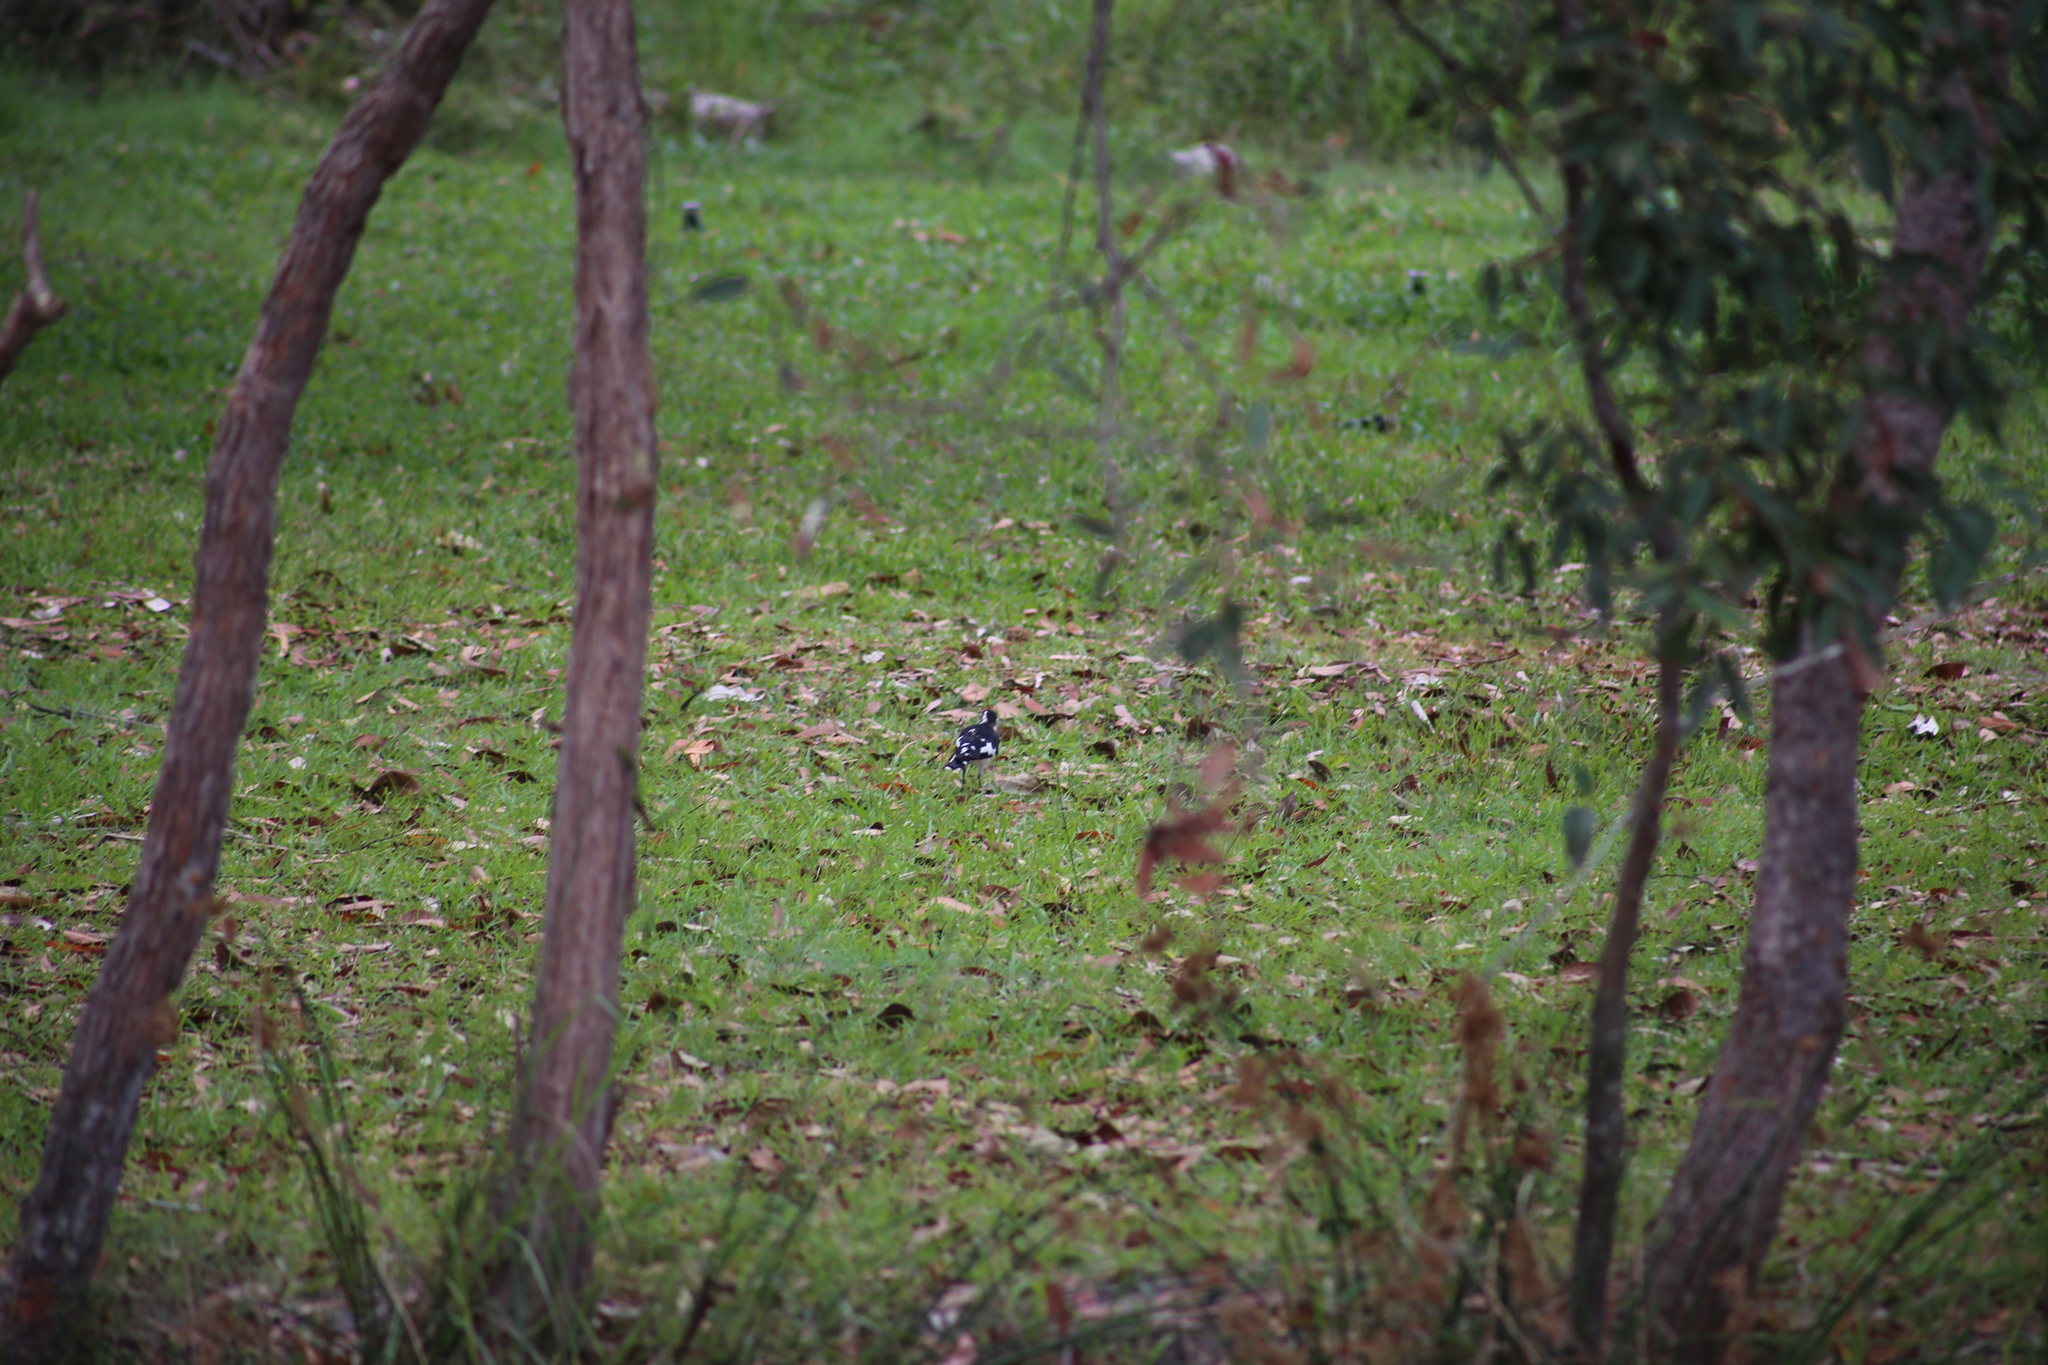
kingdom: Animalia
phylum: Chordata
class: Aves
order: Passeriformes
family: Monarchidae
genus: Grallina
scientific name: Grallina cyanoleuca
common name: Magpie-lark
